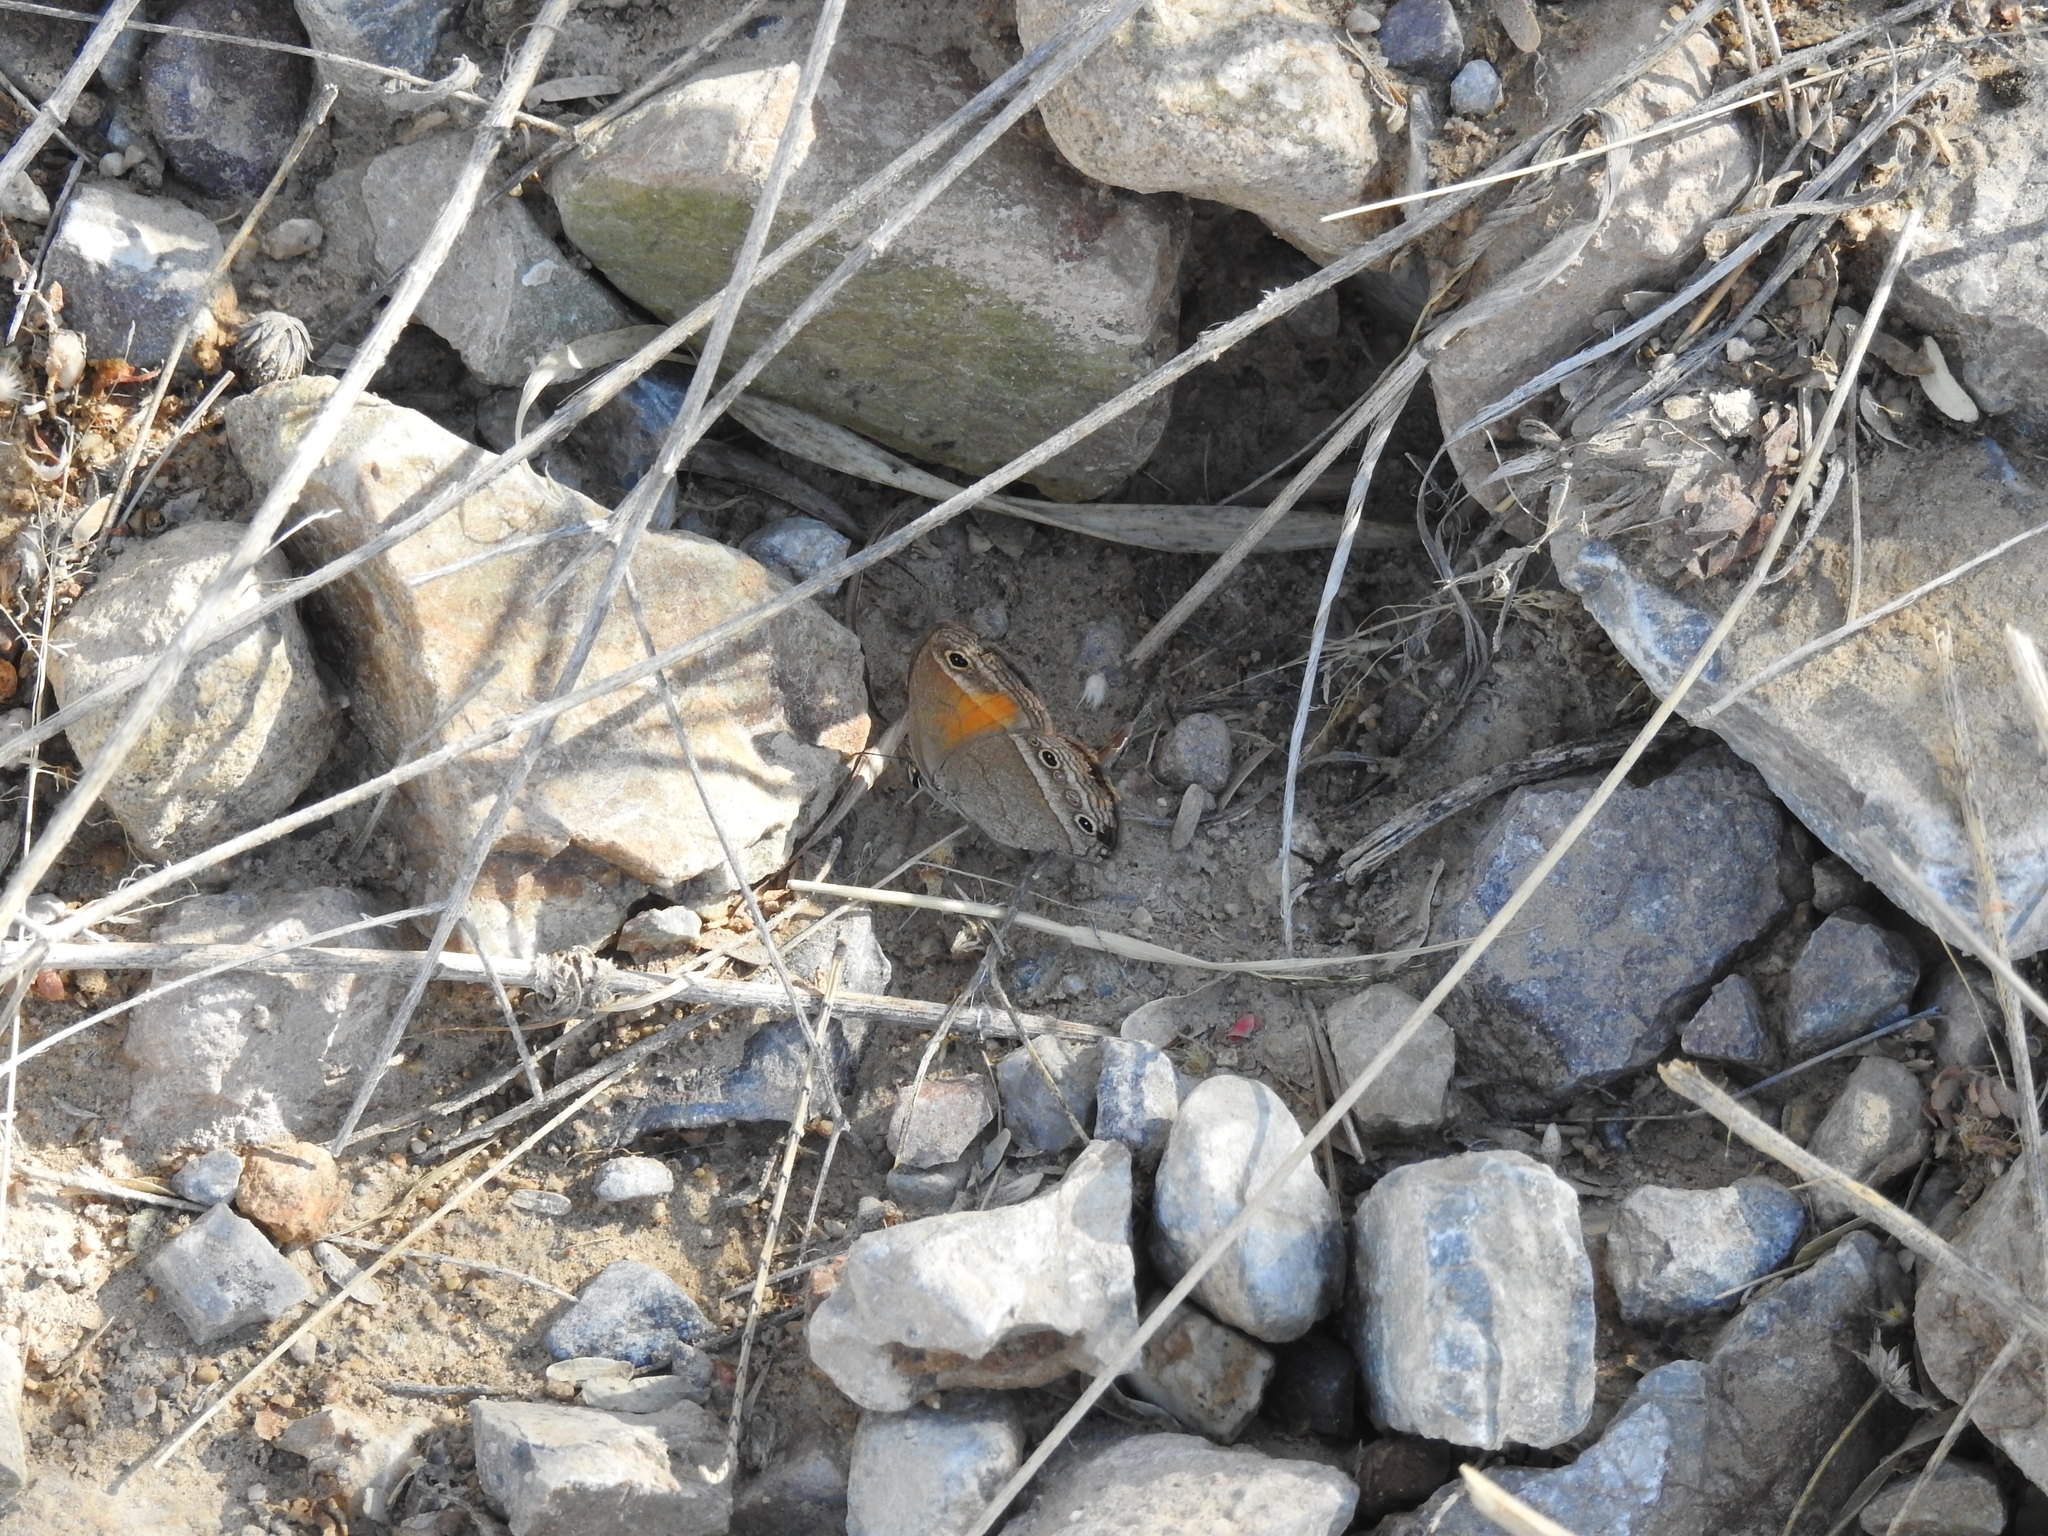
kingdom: Animalia
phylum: Arthropoda
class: Insecta
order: Lepidoptera
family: Nymphalidae
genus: Euptychia
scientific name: Euptychia
